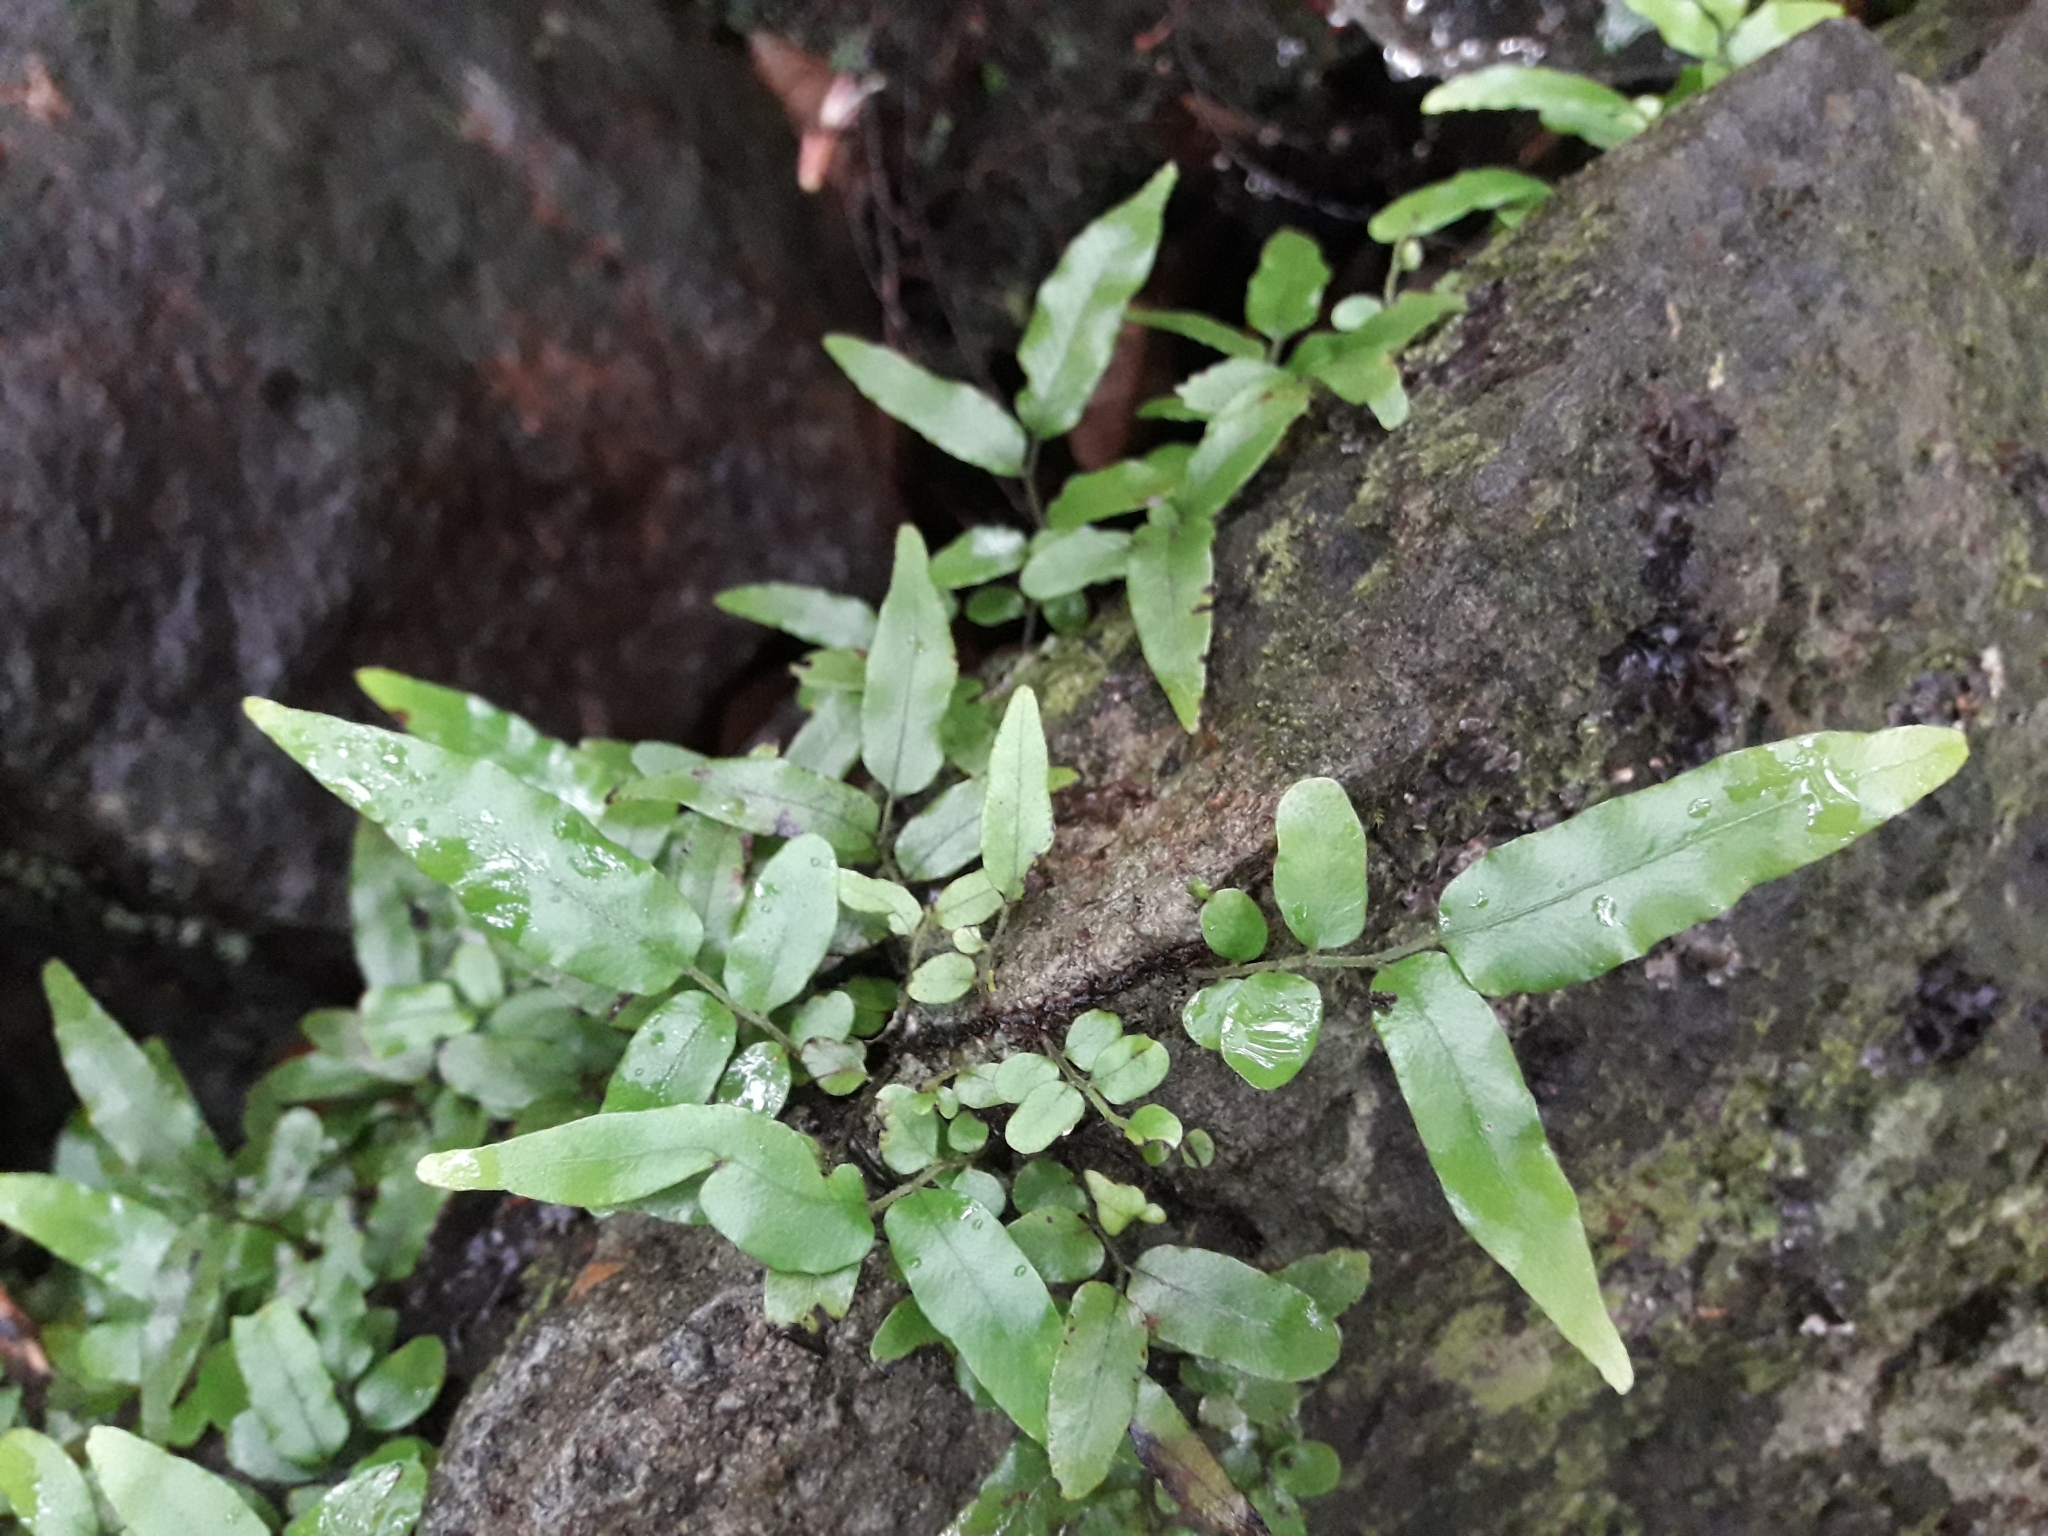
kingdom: Plantae
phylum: Tracheophyta
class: Polypodiopsida
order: Polypodiales
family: Tectariaceae
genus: Arthropteris
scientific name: Arthropteris tenella
